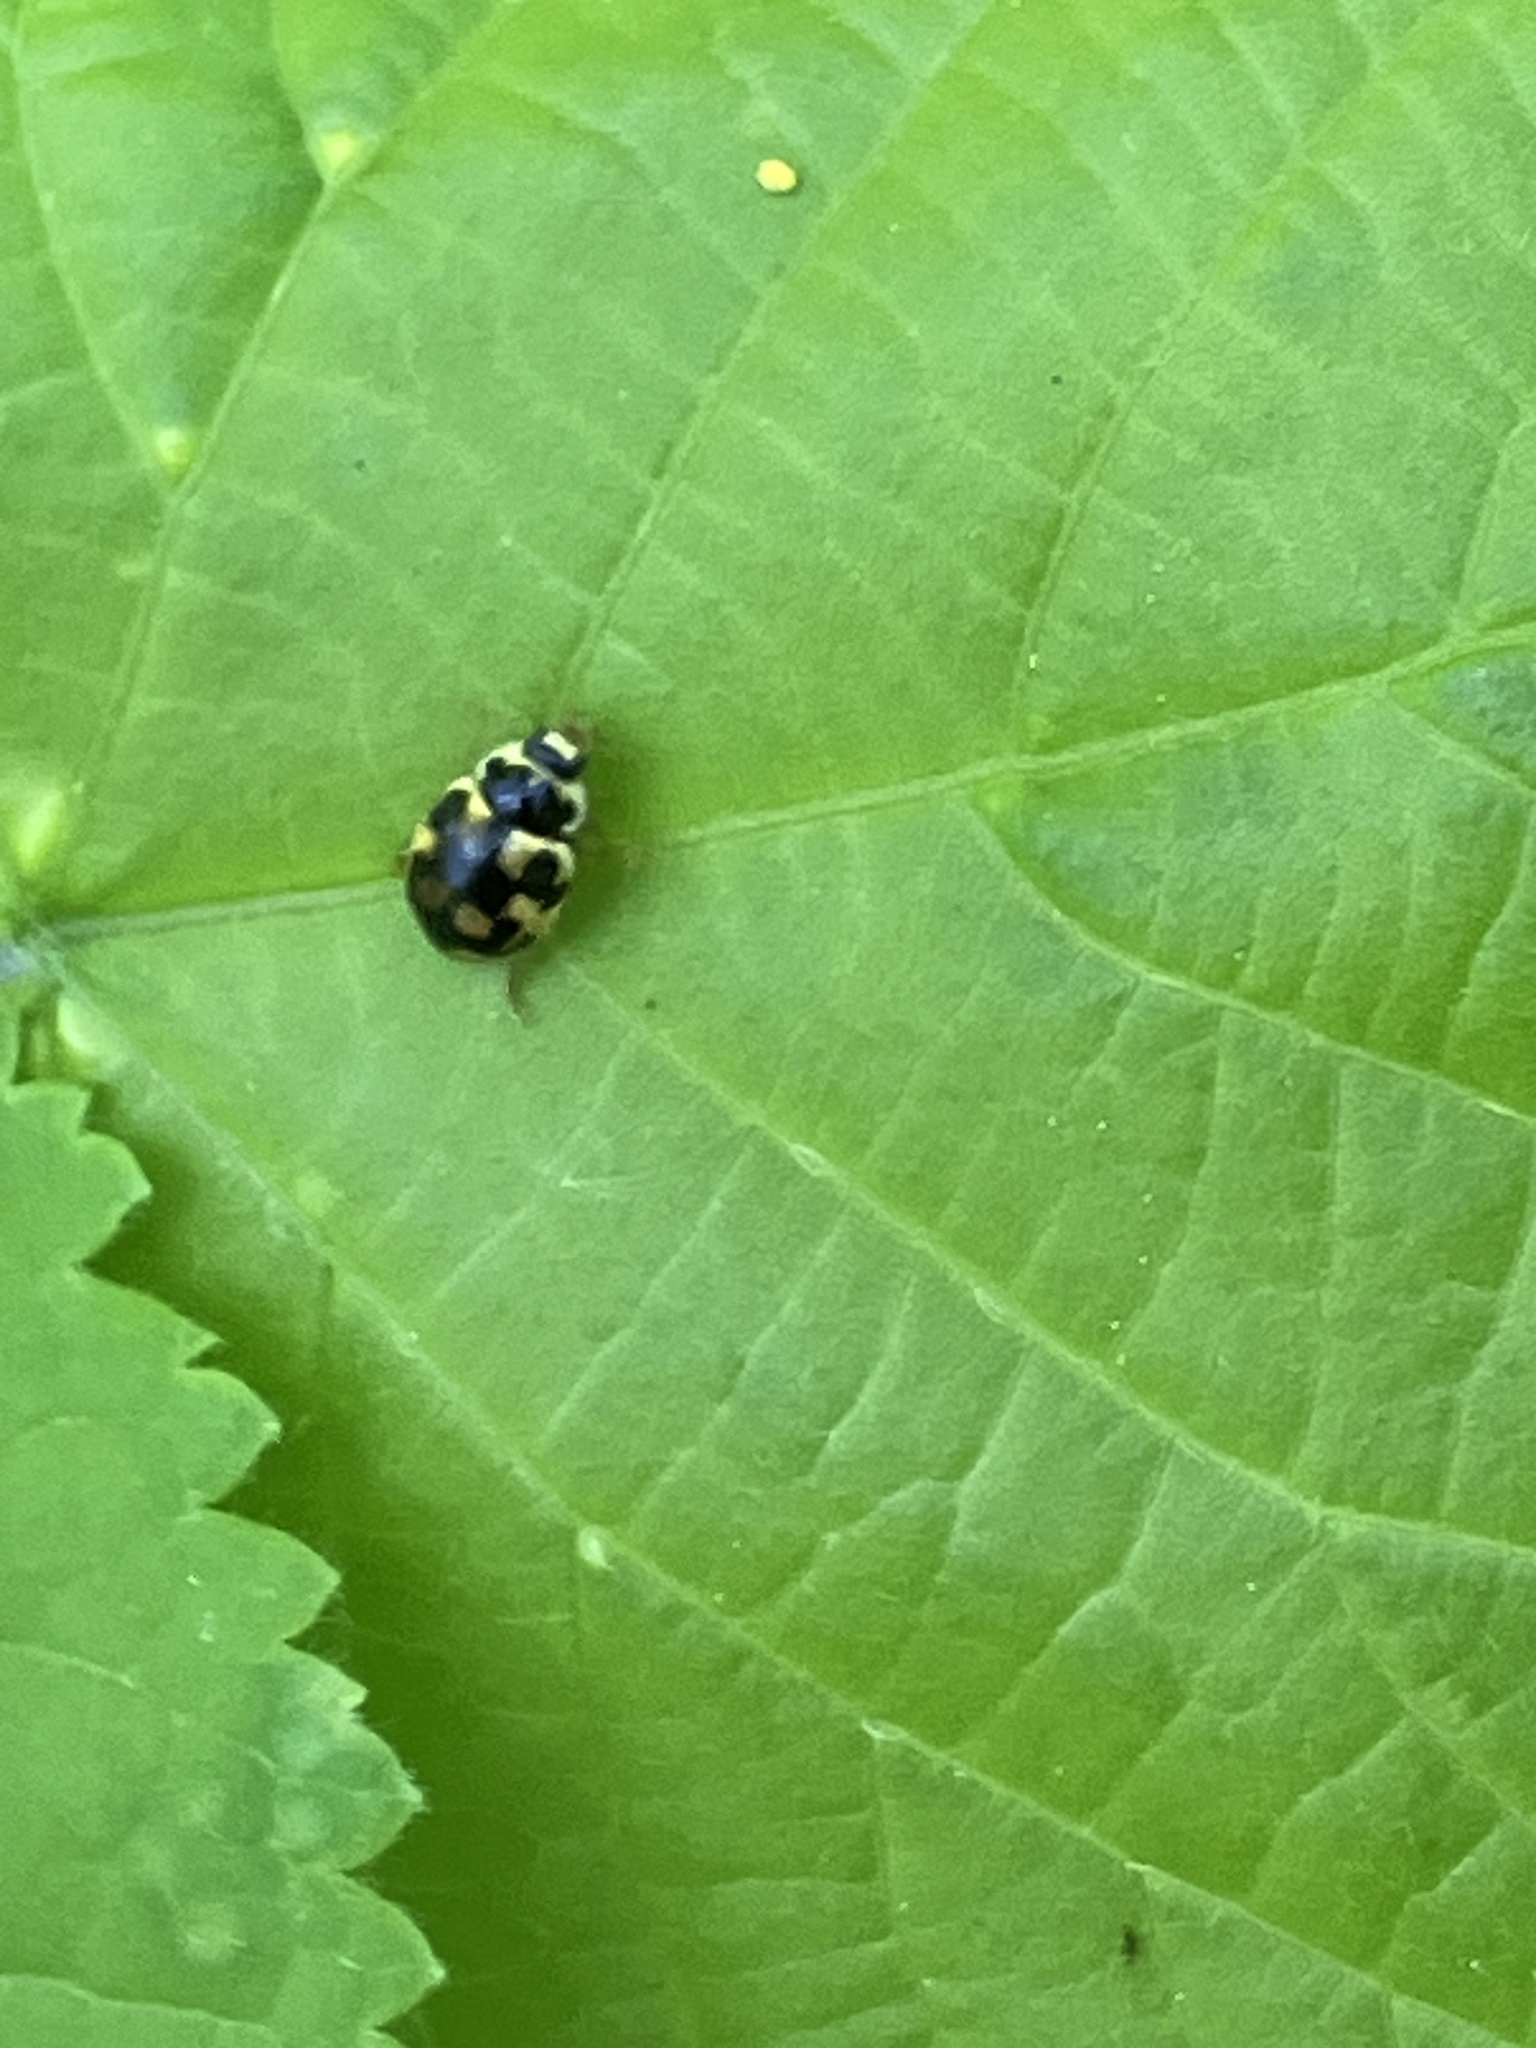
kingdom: Animalia
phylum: Arthropoda
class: Insecta
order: Coleoptera
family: Coccinellidae
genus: Propylaea
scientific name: Propylaea quatuordecimpunctata
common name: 14-spotted ladybird beetle
